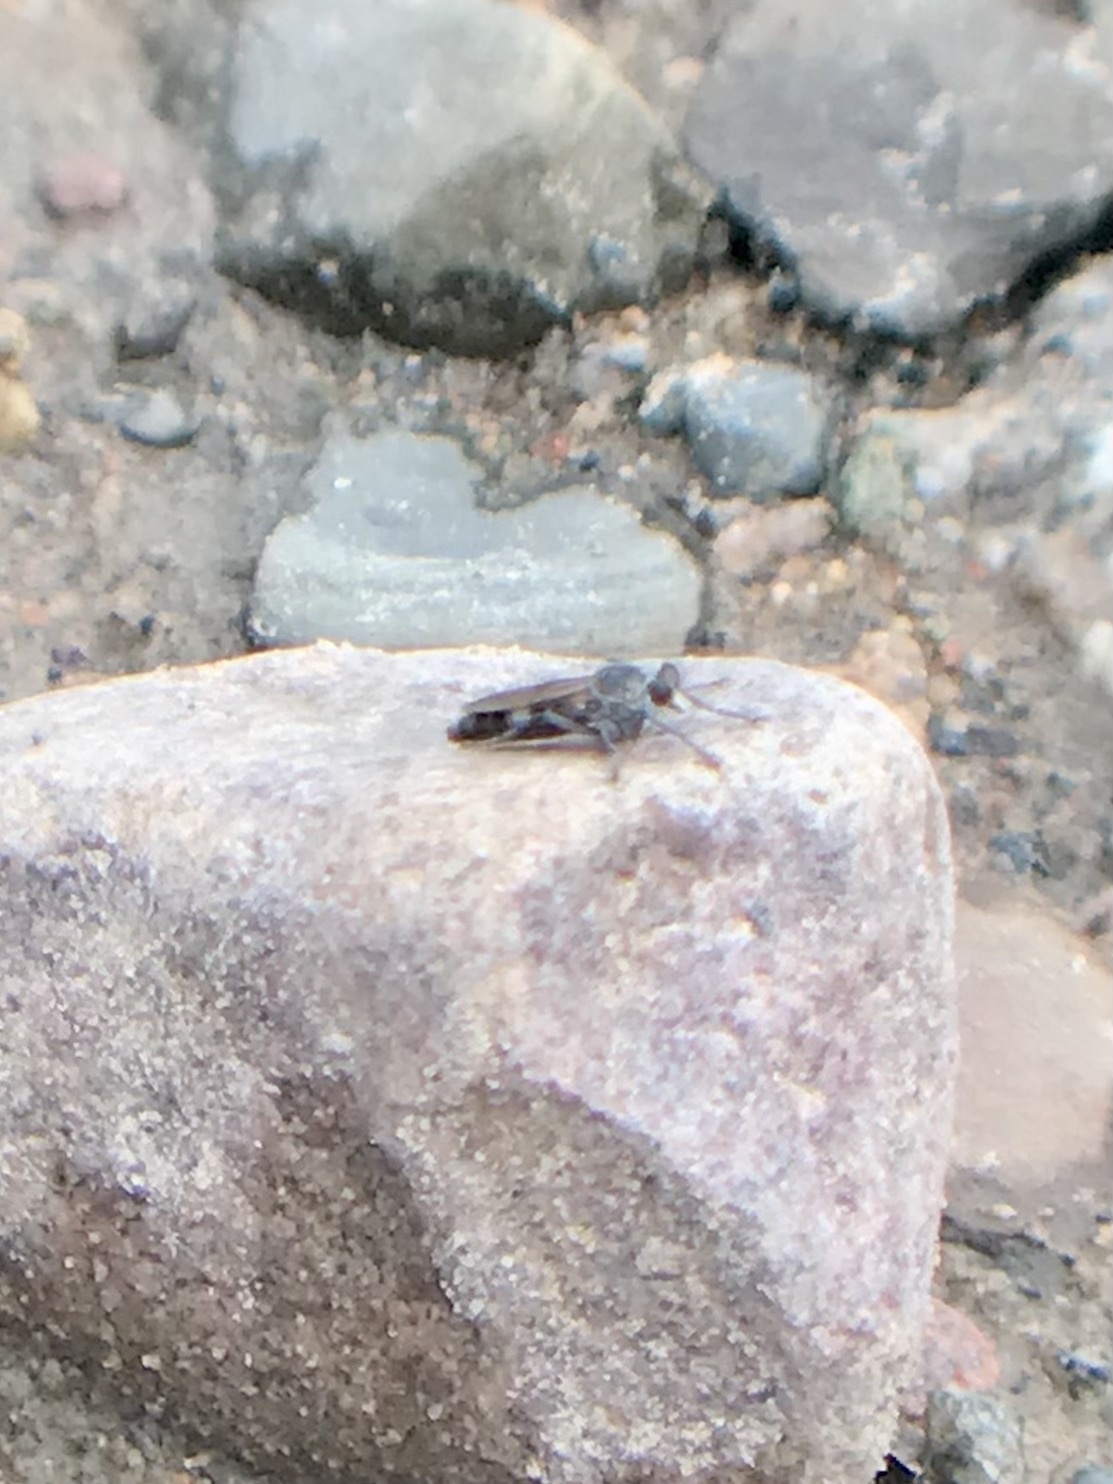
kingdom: Animalia
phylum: Arthropoda
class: Insecta
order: Diptera
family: Asilidae
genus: Stichopogon
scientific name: Stichopogon trifasciatus
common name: Three-banded robber fly
